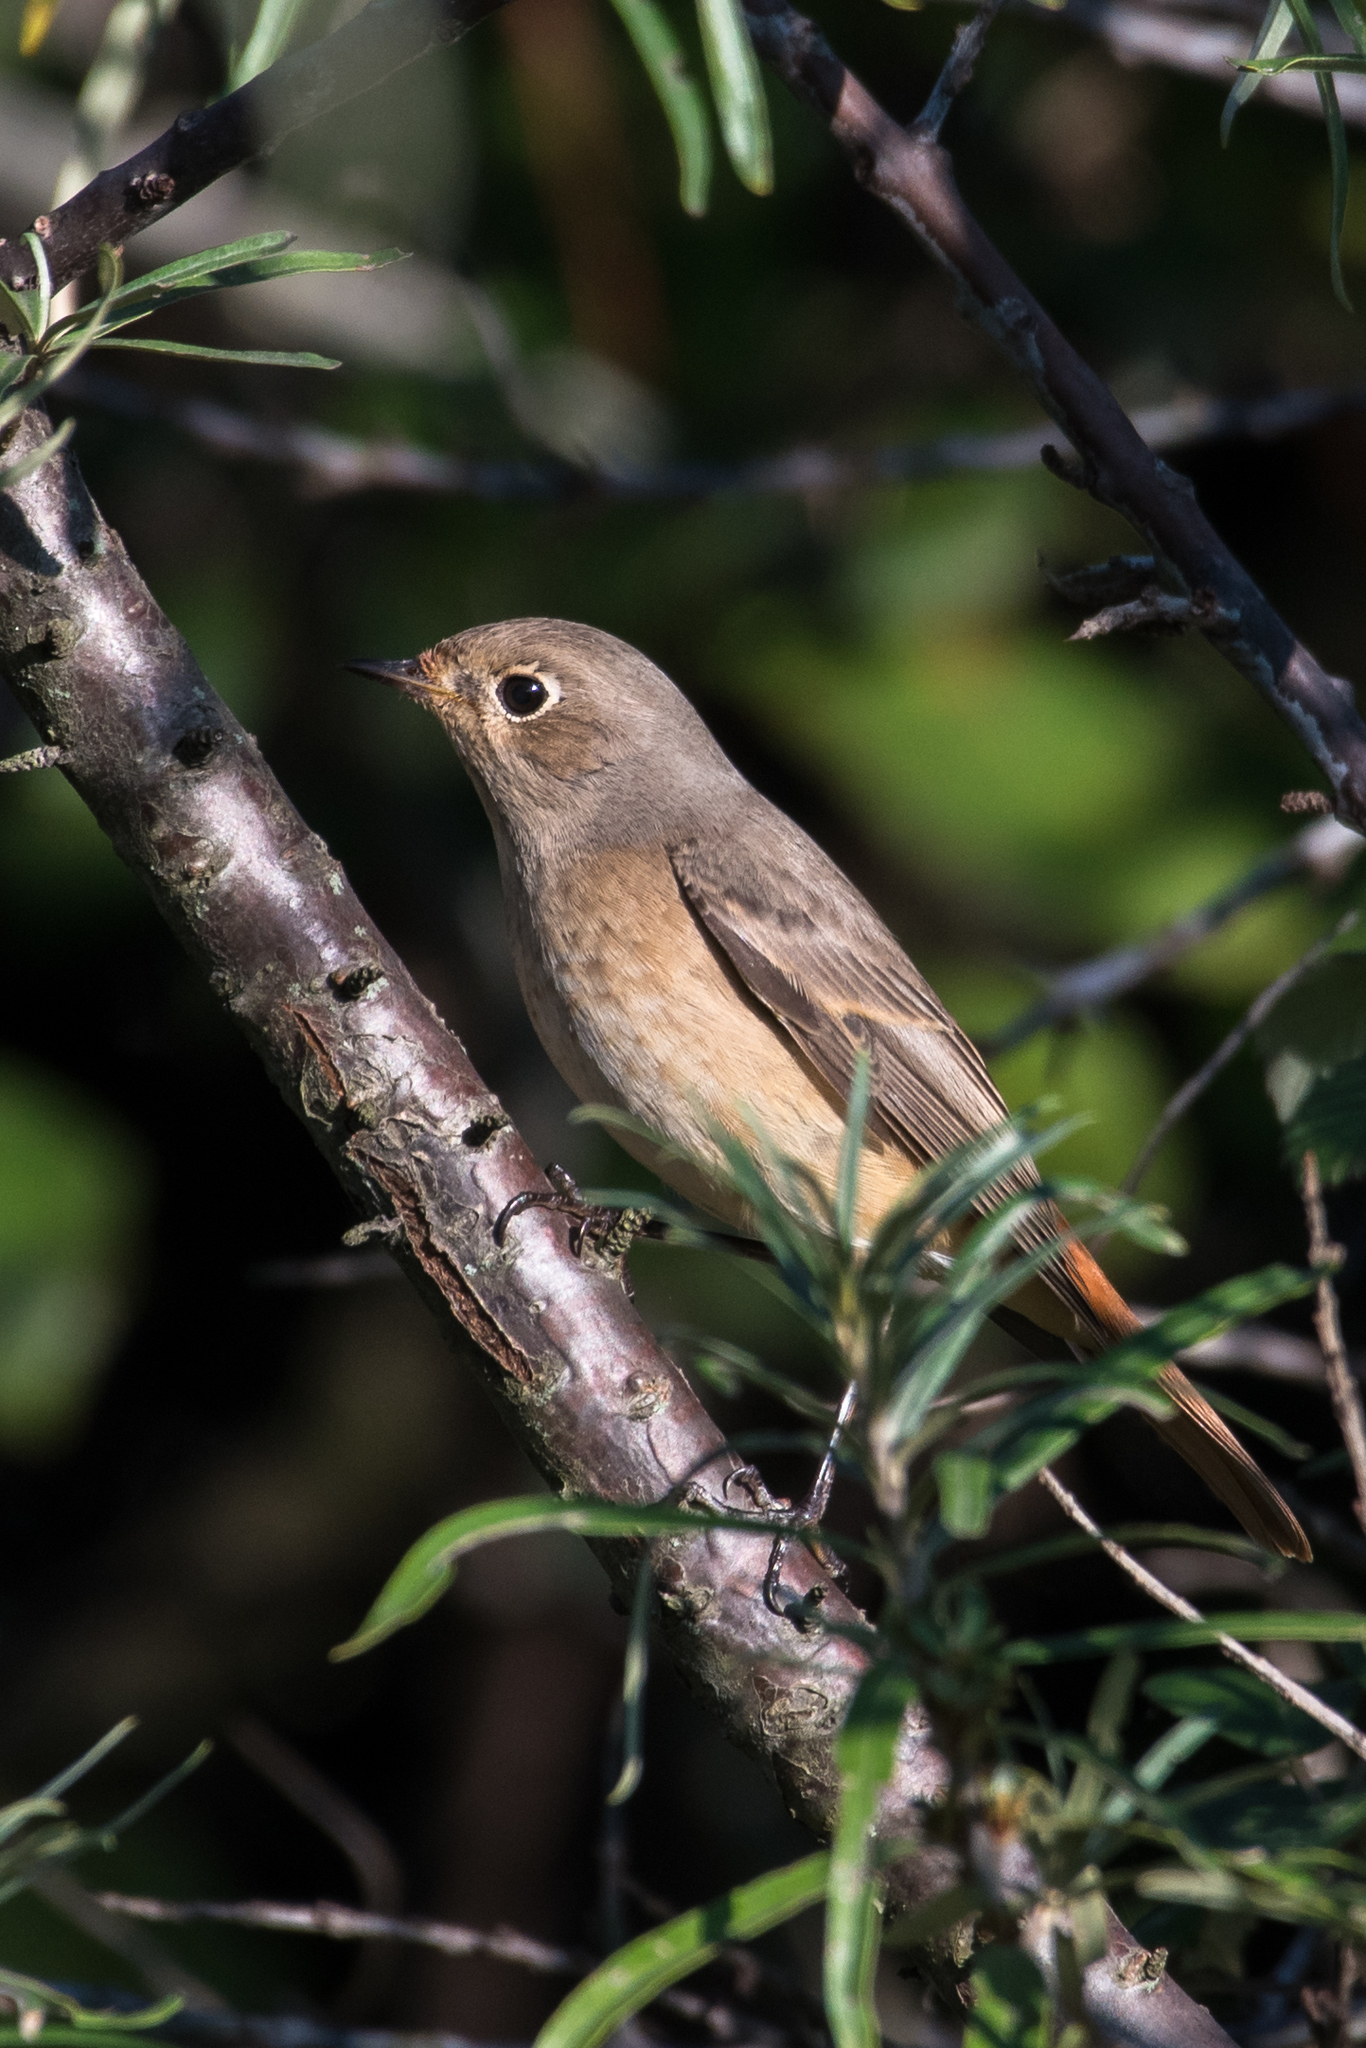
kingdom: Animalia
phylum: Chordata
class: Aves
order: Passeriformes
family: Muscicapidae
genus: Phoenicurus
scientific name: Phoenicurus phoenicurus
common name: Common redstart
